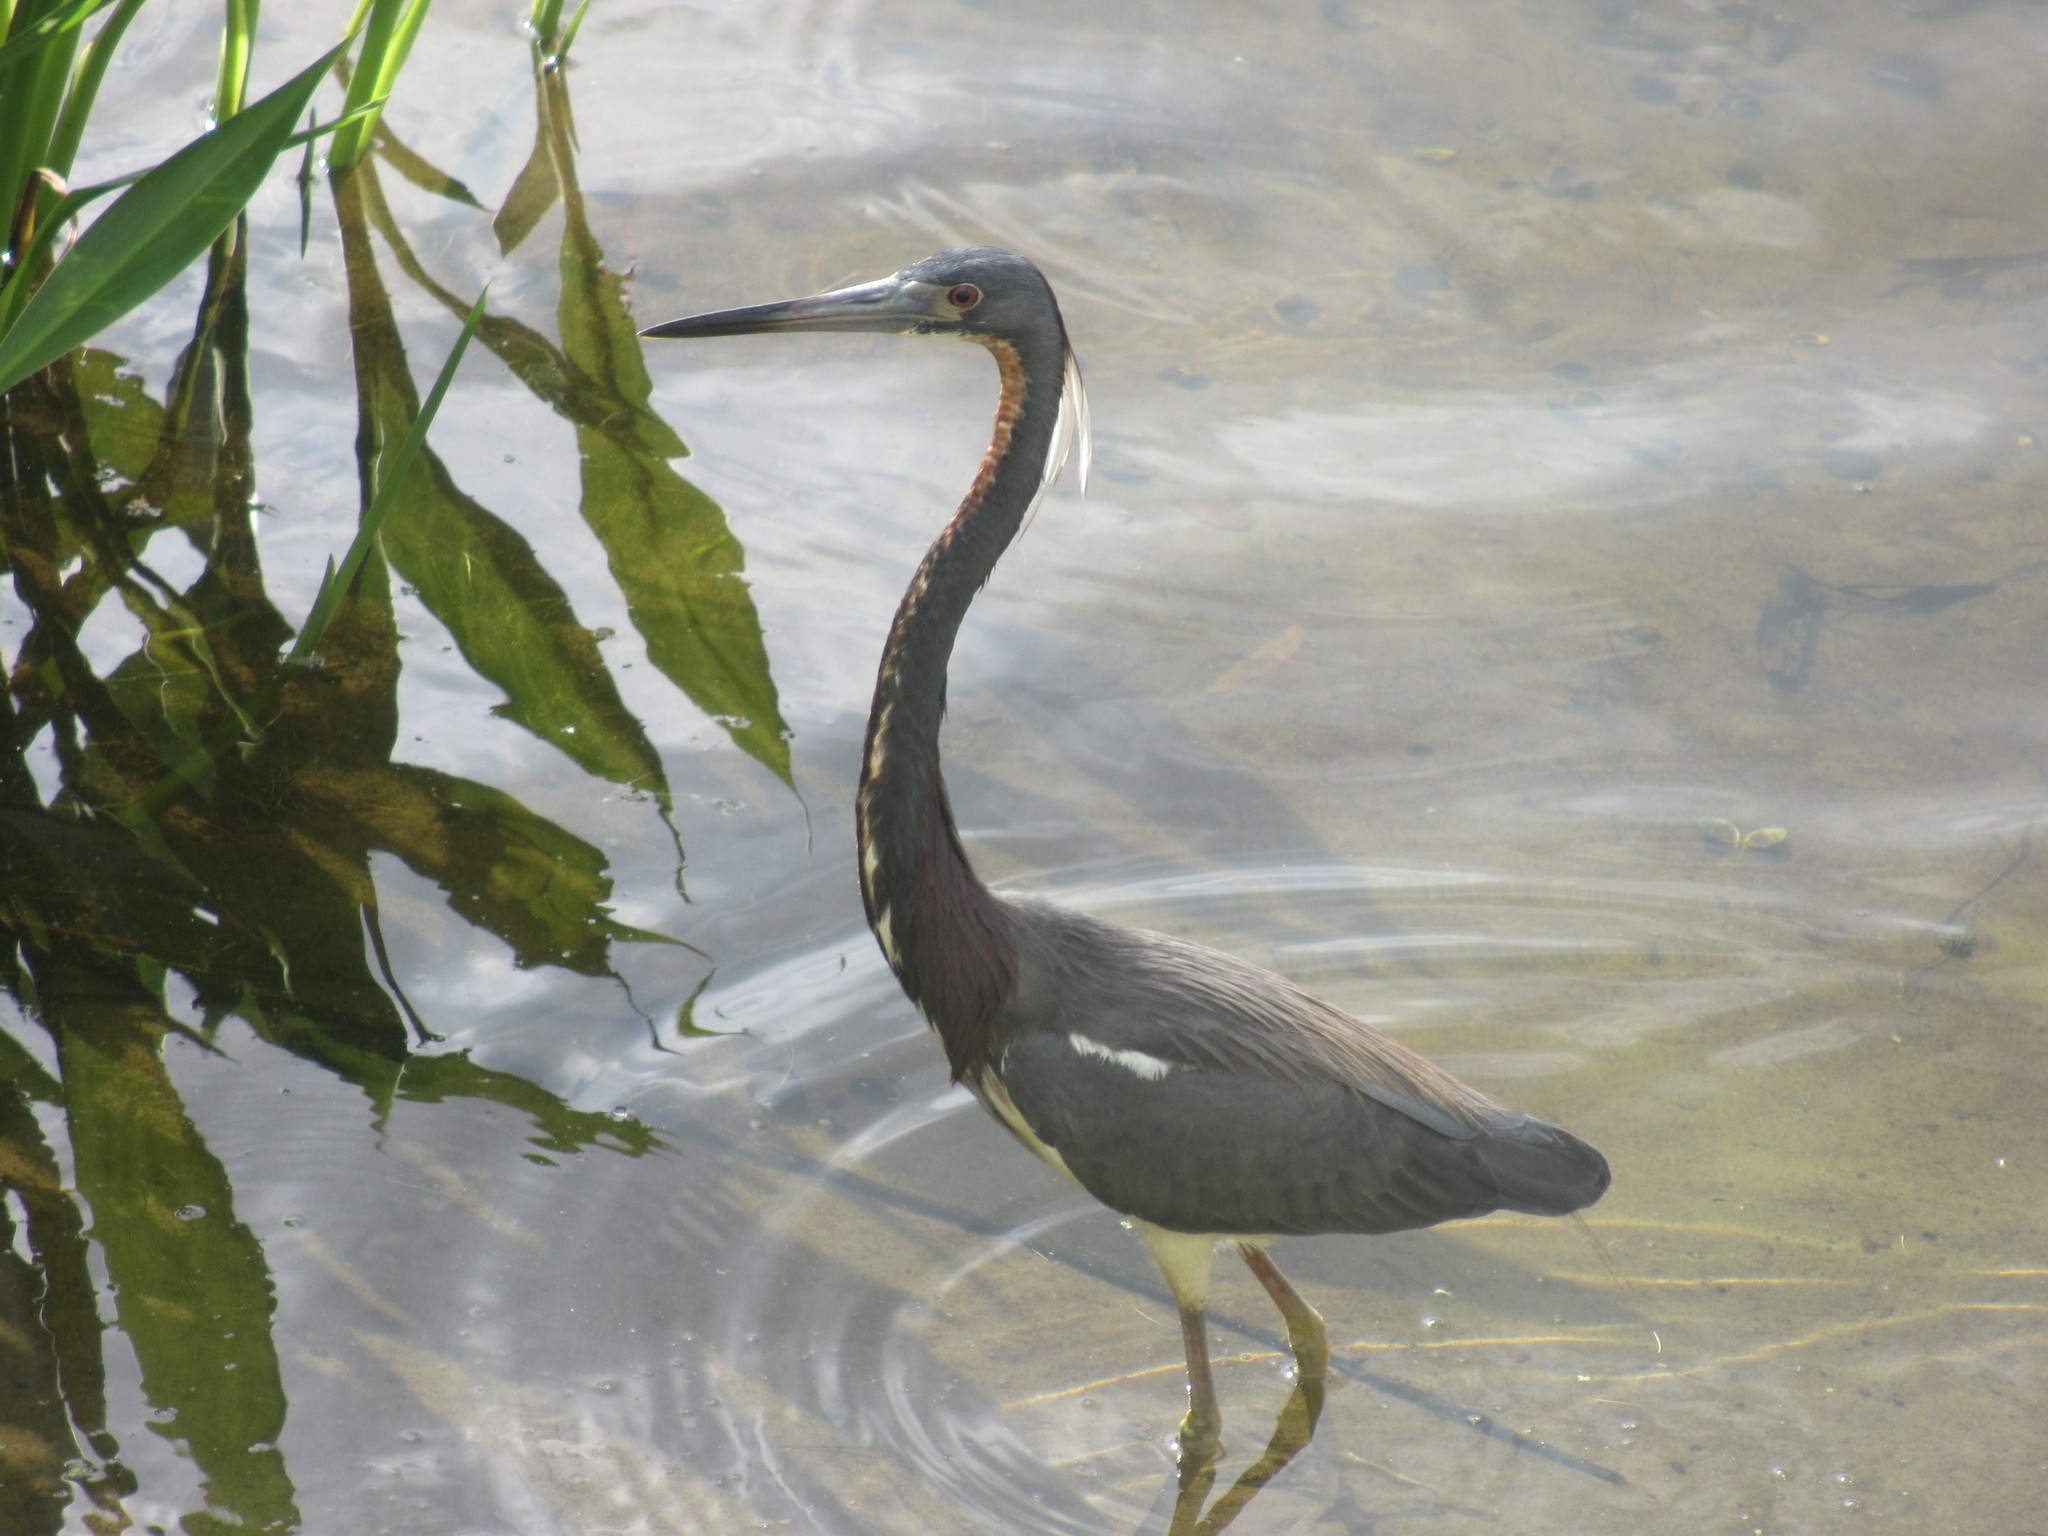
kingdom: Animalia
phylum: Chordata
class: Aves
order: Pelecaniformes
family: Ardeidae
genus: Egretta
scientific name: Egretta tricolor
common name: Tricolored heron
